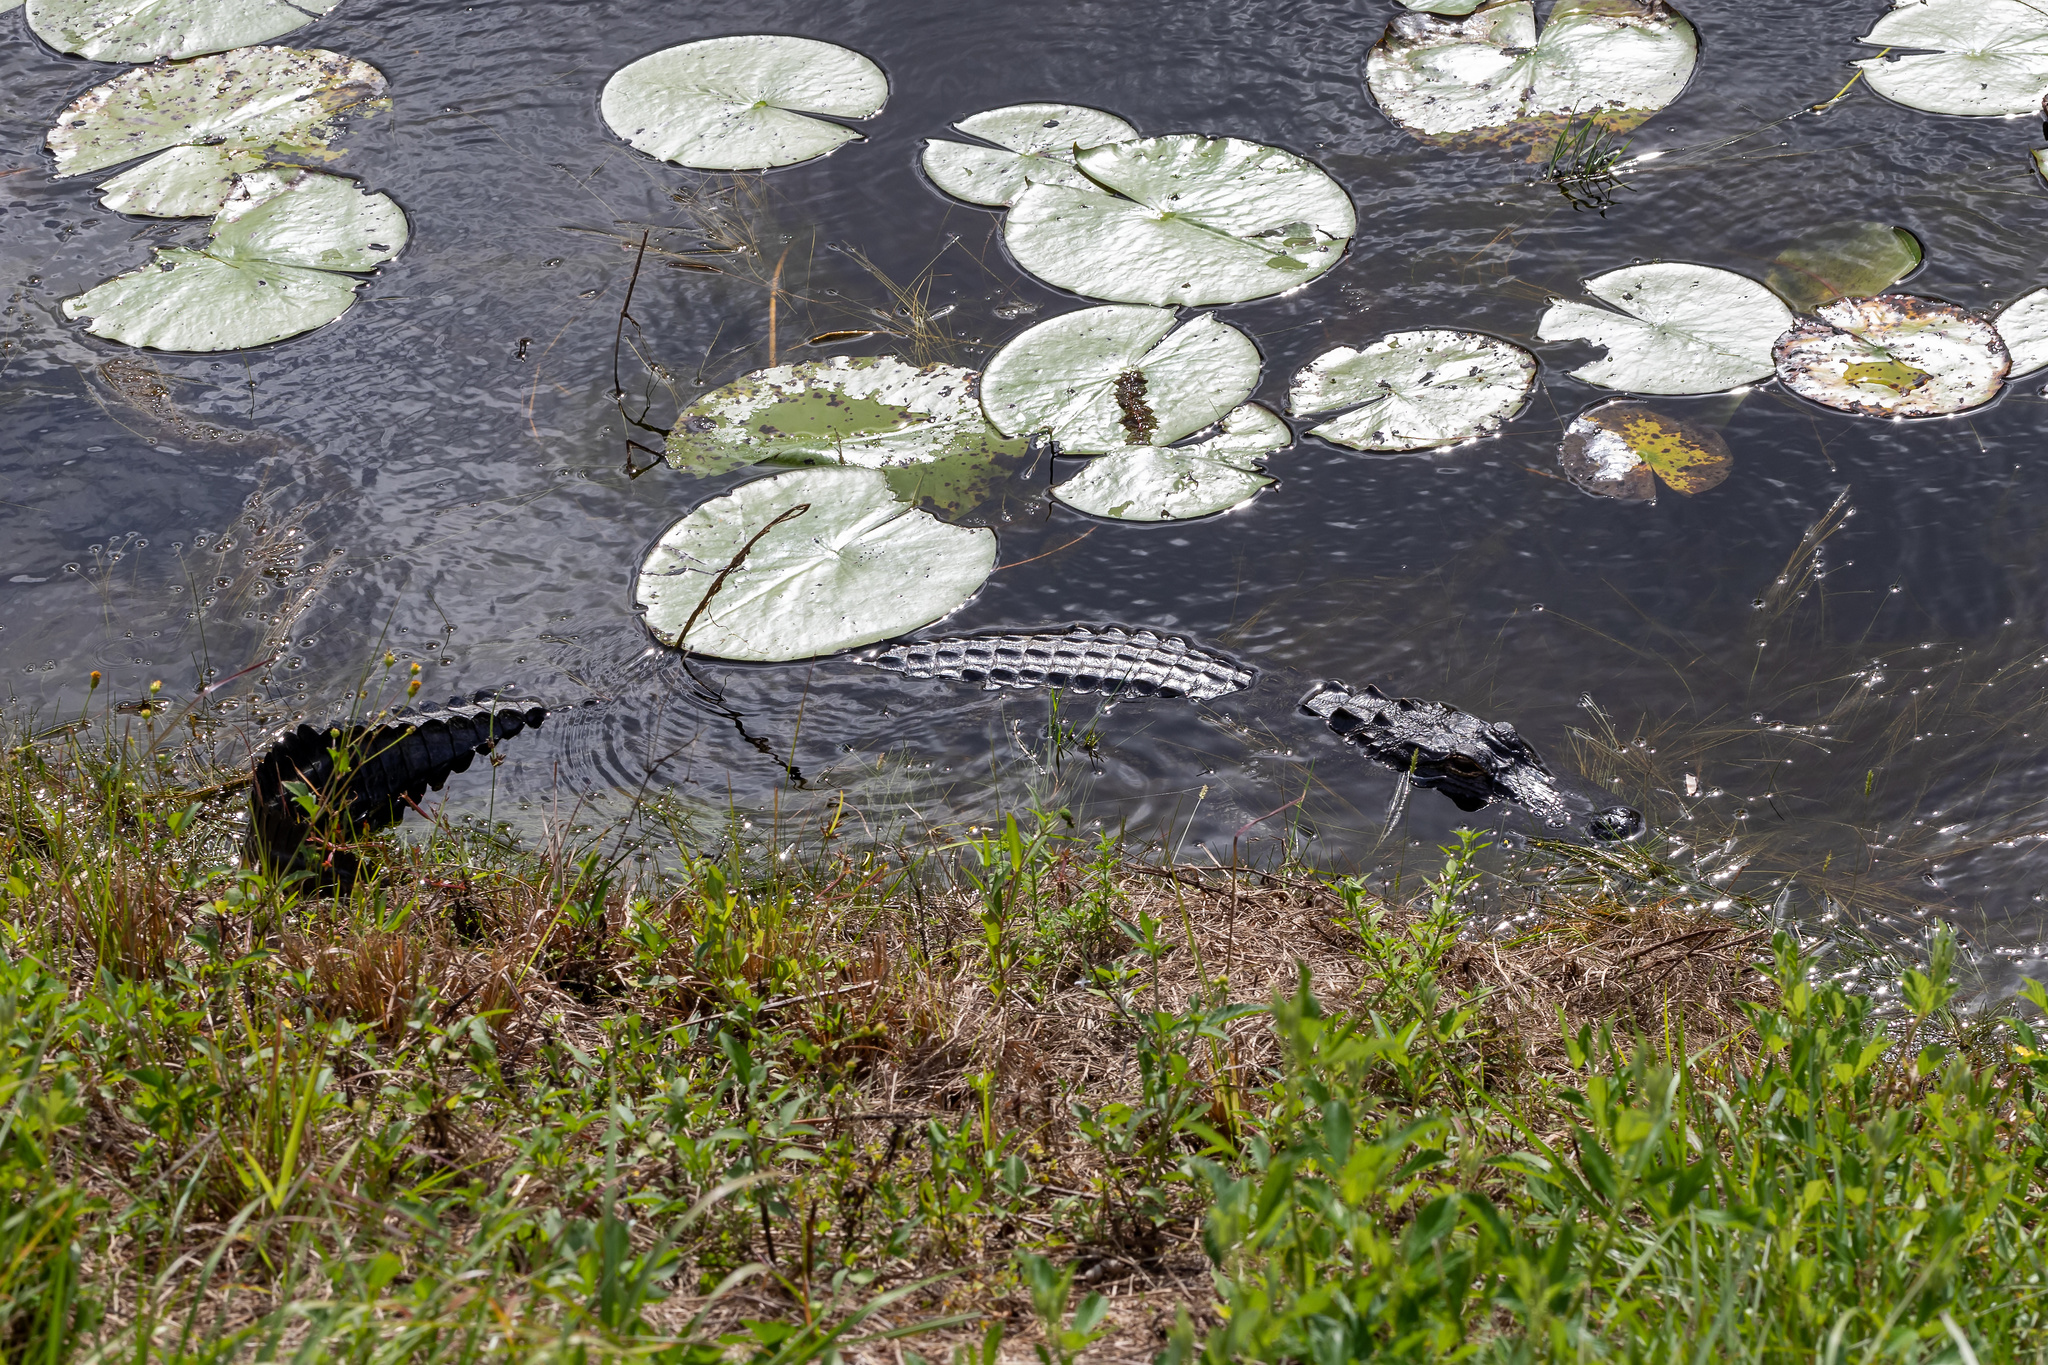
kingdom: Animalia
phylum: Chordata
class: Crocodylia
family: Alligatoridae
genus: Alligator
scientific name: Alligator mississippiensis
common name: American alligator
